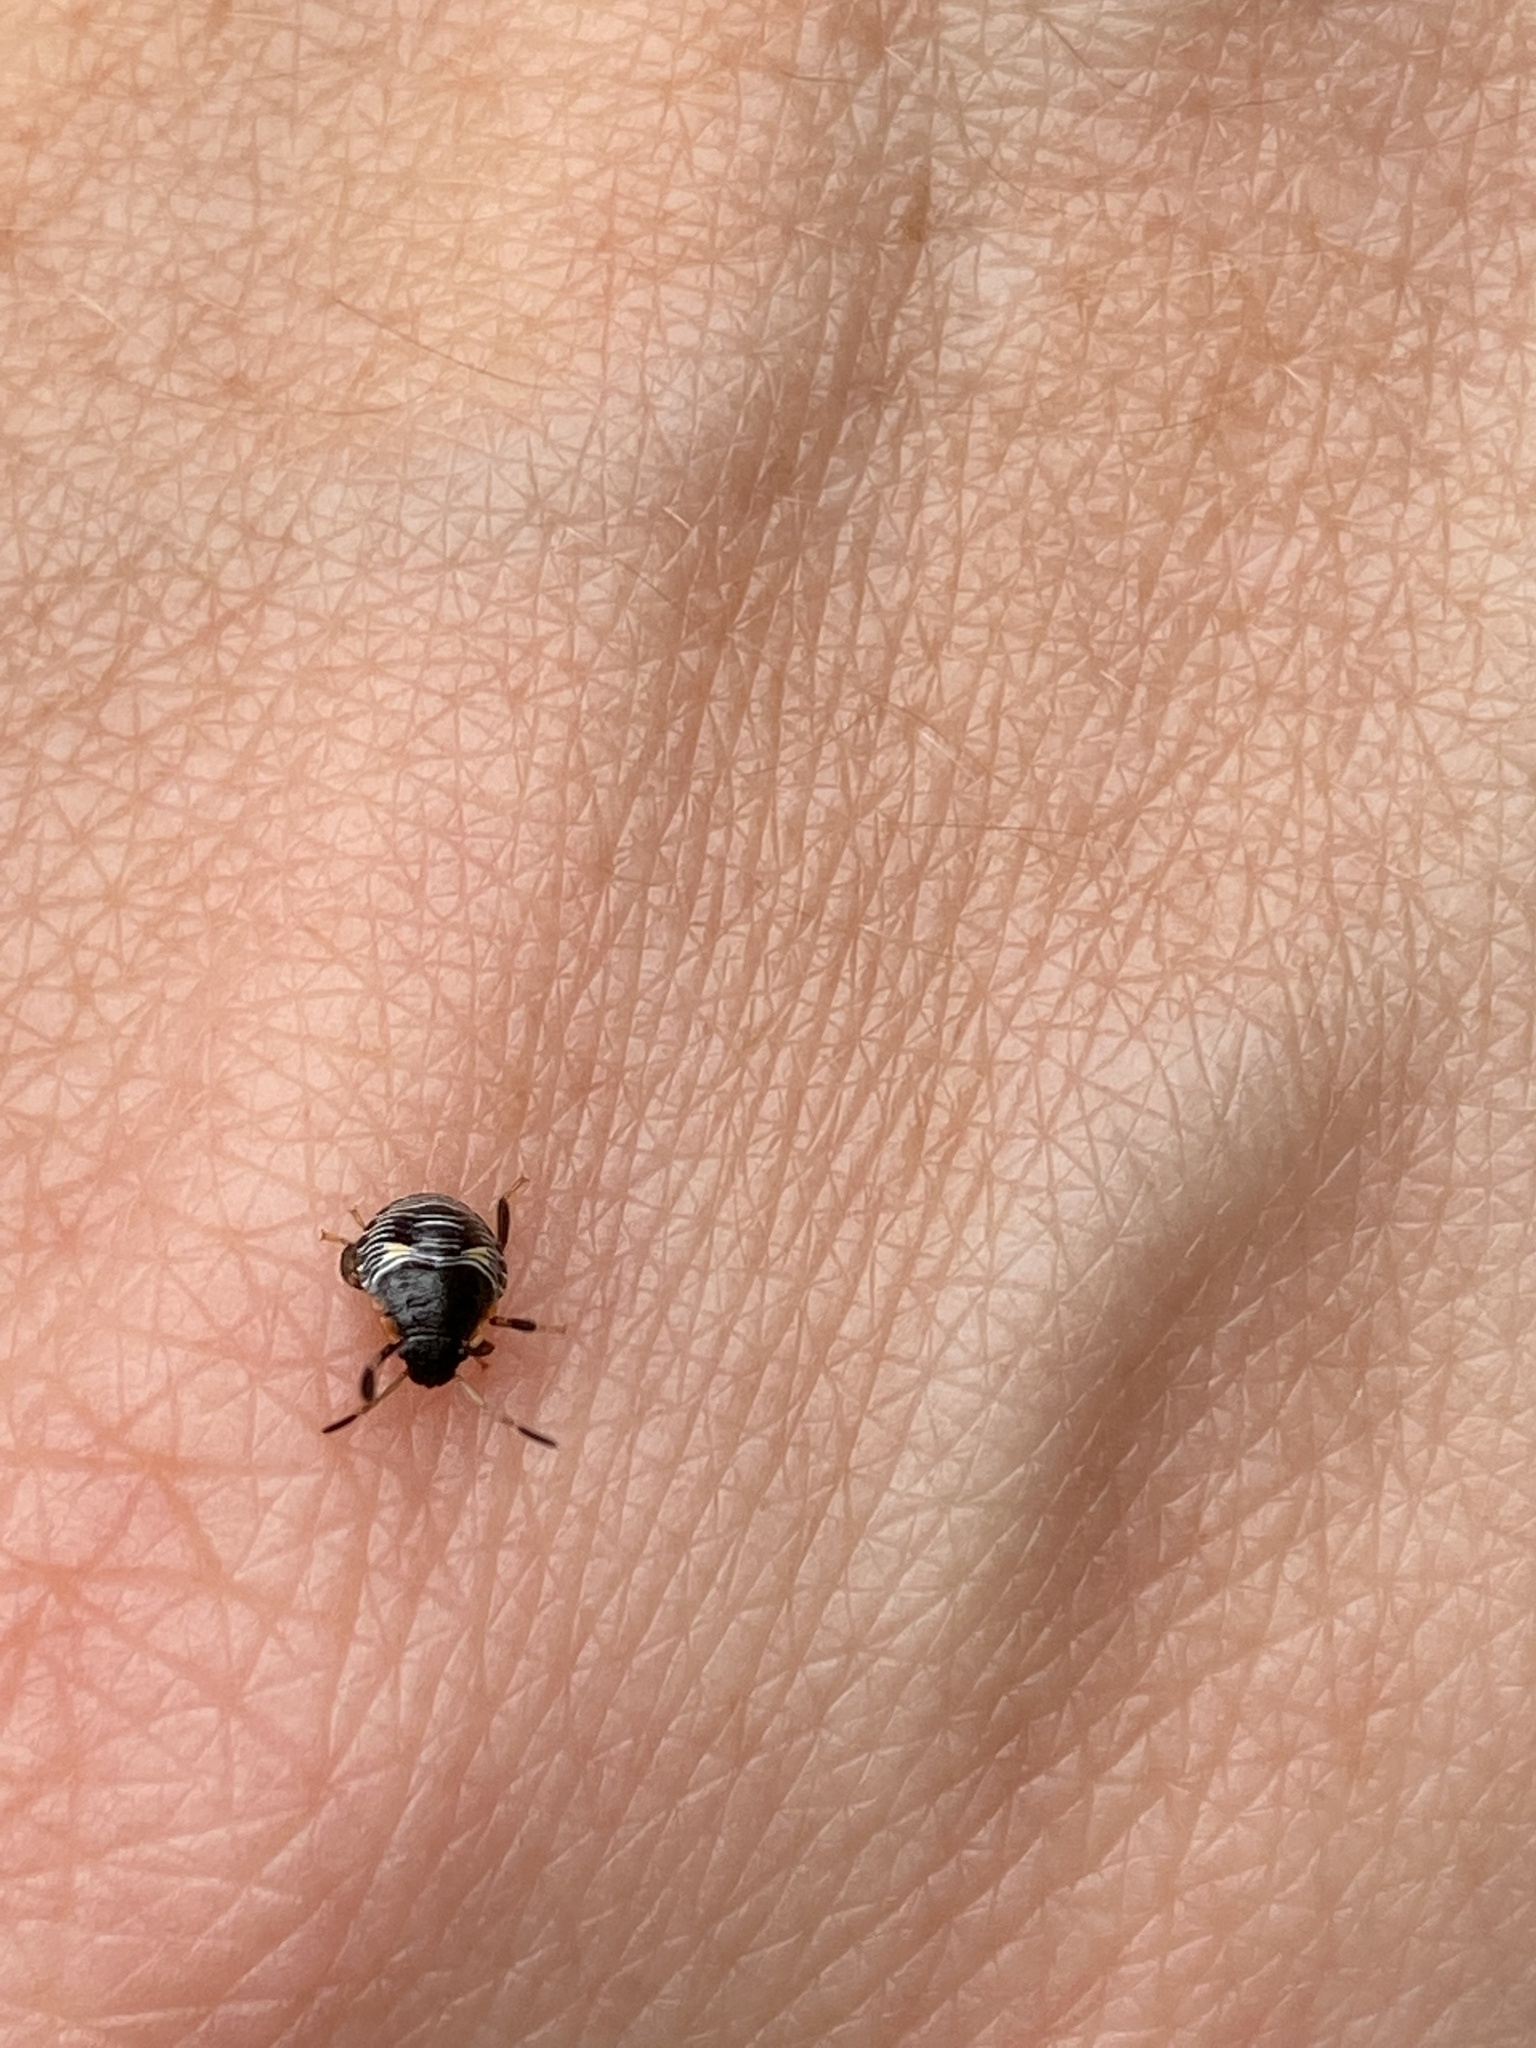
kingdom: Animalia
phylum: Arthropoda
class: Insecta
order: Hemiptera
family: Pentatomidae
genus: Chinavia
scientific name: Chinavia hilaris
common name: Green stink bug
